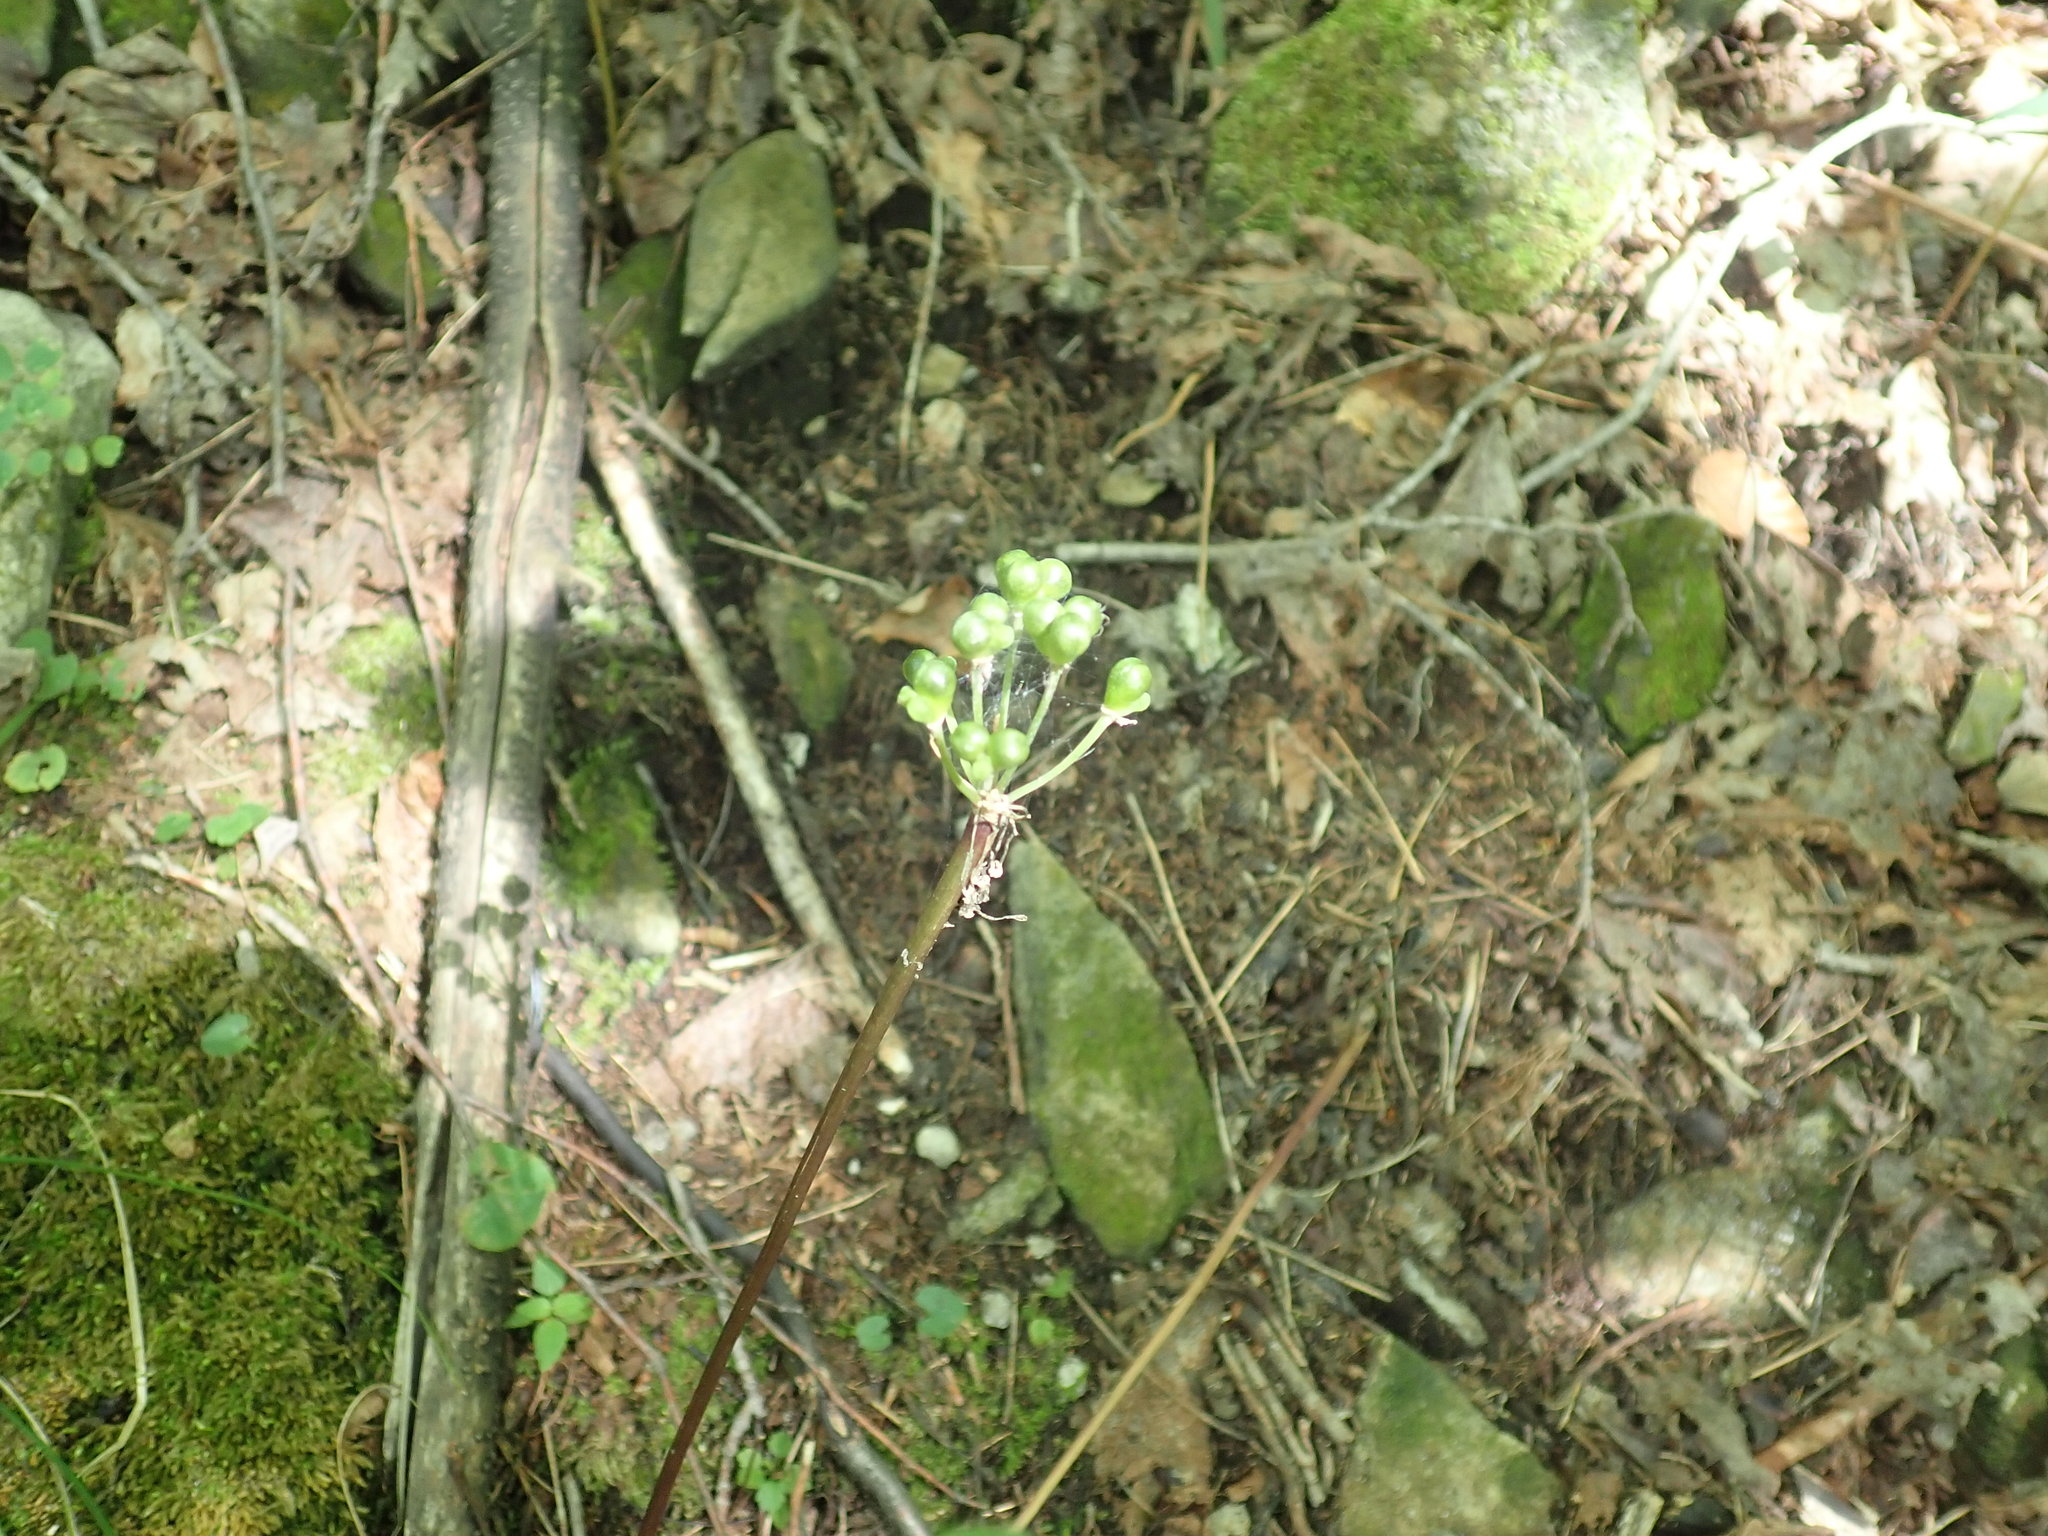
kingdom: Plantae
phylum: Tracheophyta
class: Liliopsida
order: Asparagales
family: Amaryllidaceae
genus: Allium
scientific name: Allium tricoccum
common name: Ramp
